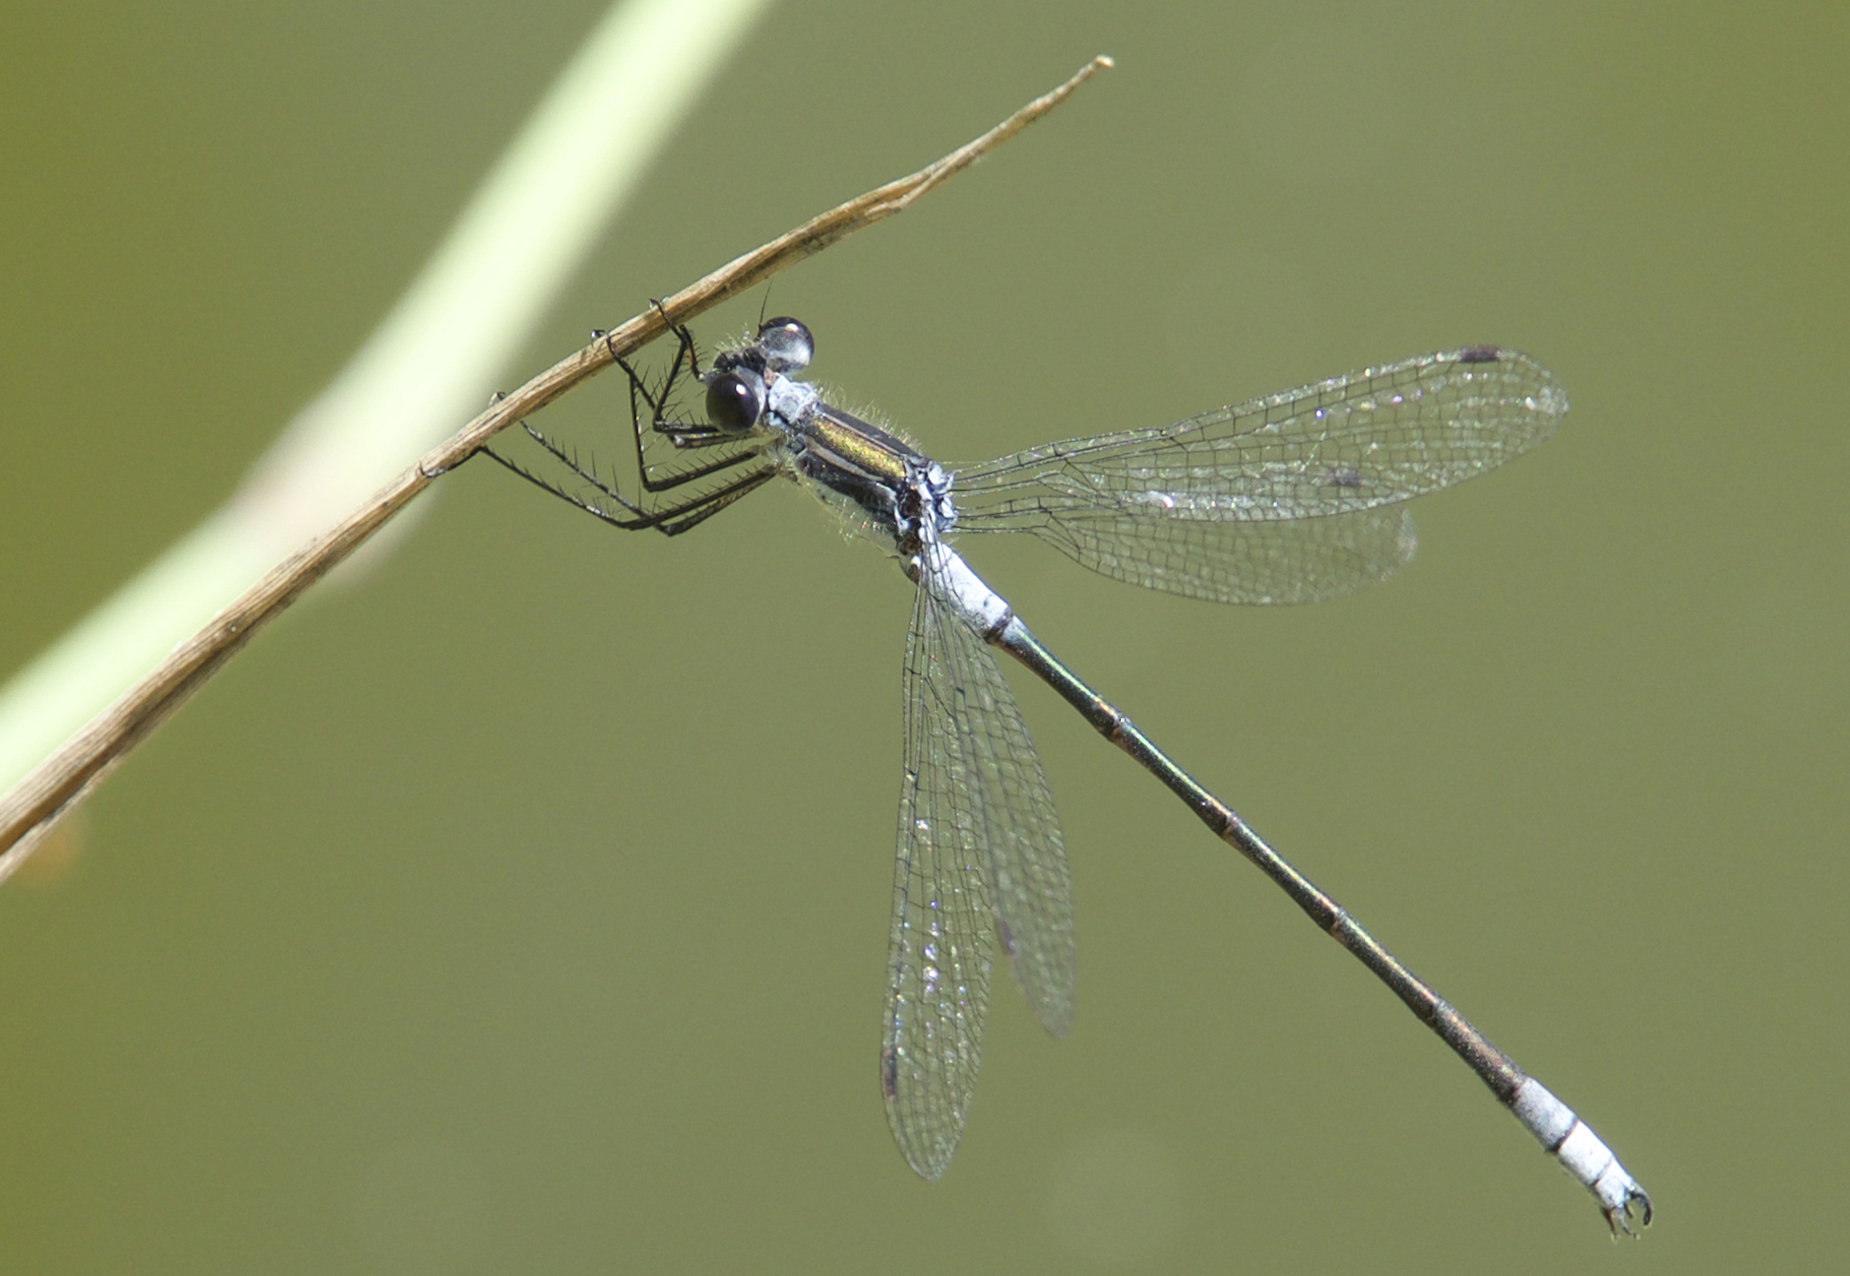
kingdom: Animalia
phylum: Arthropoda
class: Insecta
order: Odonata
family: Lestidae
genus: Lestes
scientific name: Lestes disjunctus
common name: Northern spreadwing
